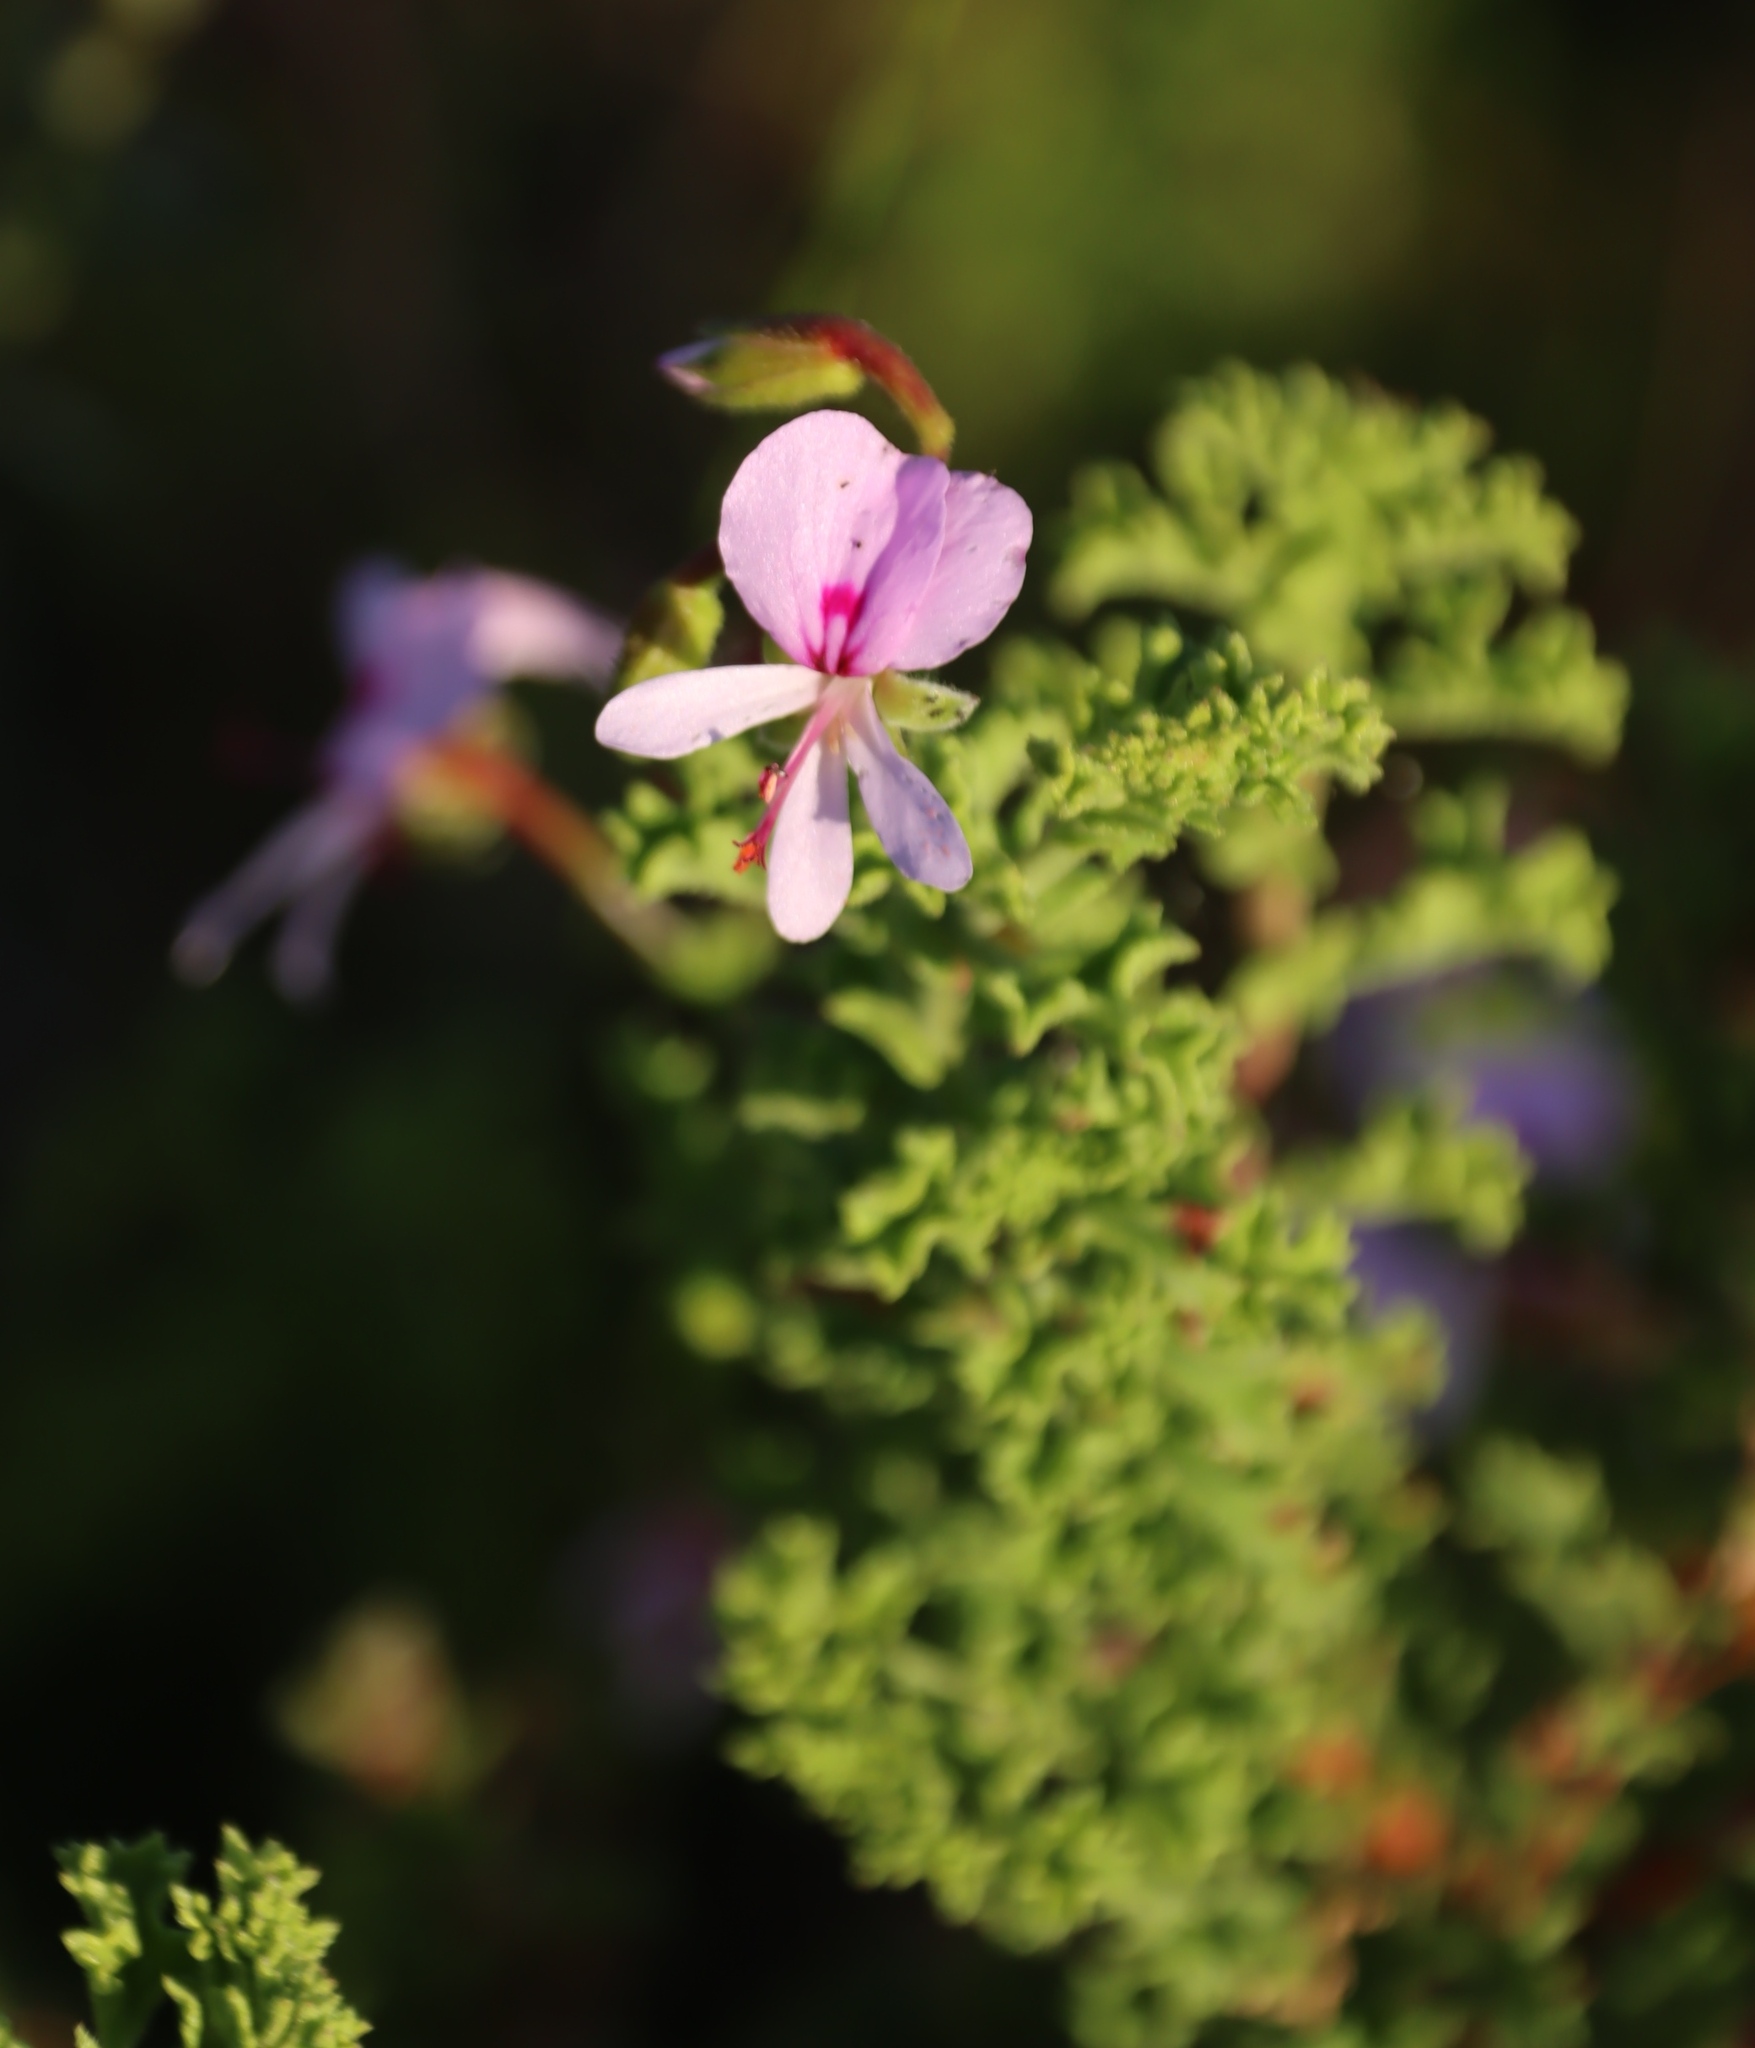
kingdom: Plantae
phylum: Tracheophyta
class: Magnoliopsida
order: Geraniales
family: Geraniaceae
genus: Pelargonium
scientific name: Pelargonium hermaniifolium
